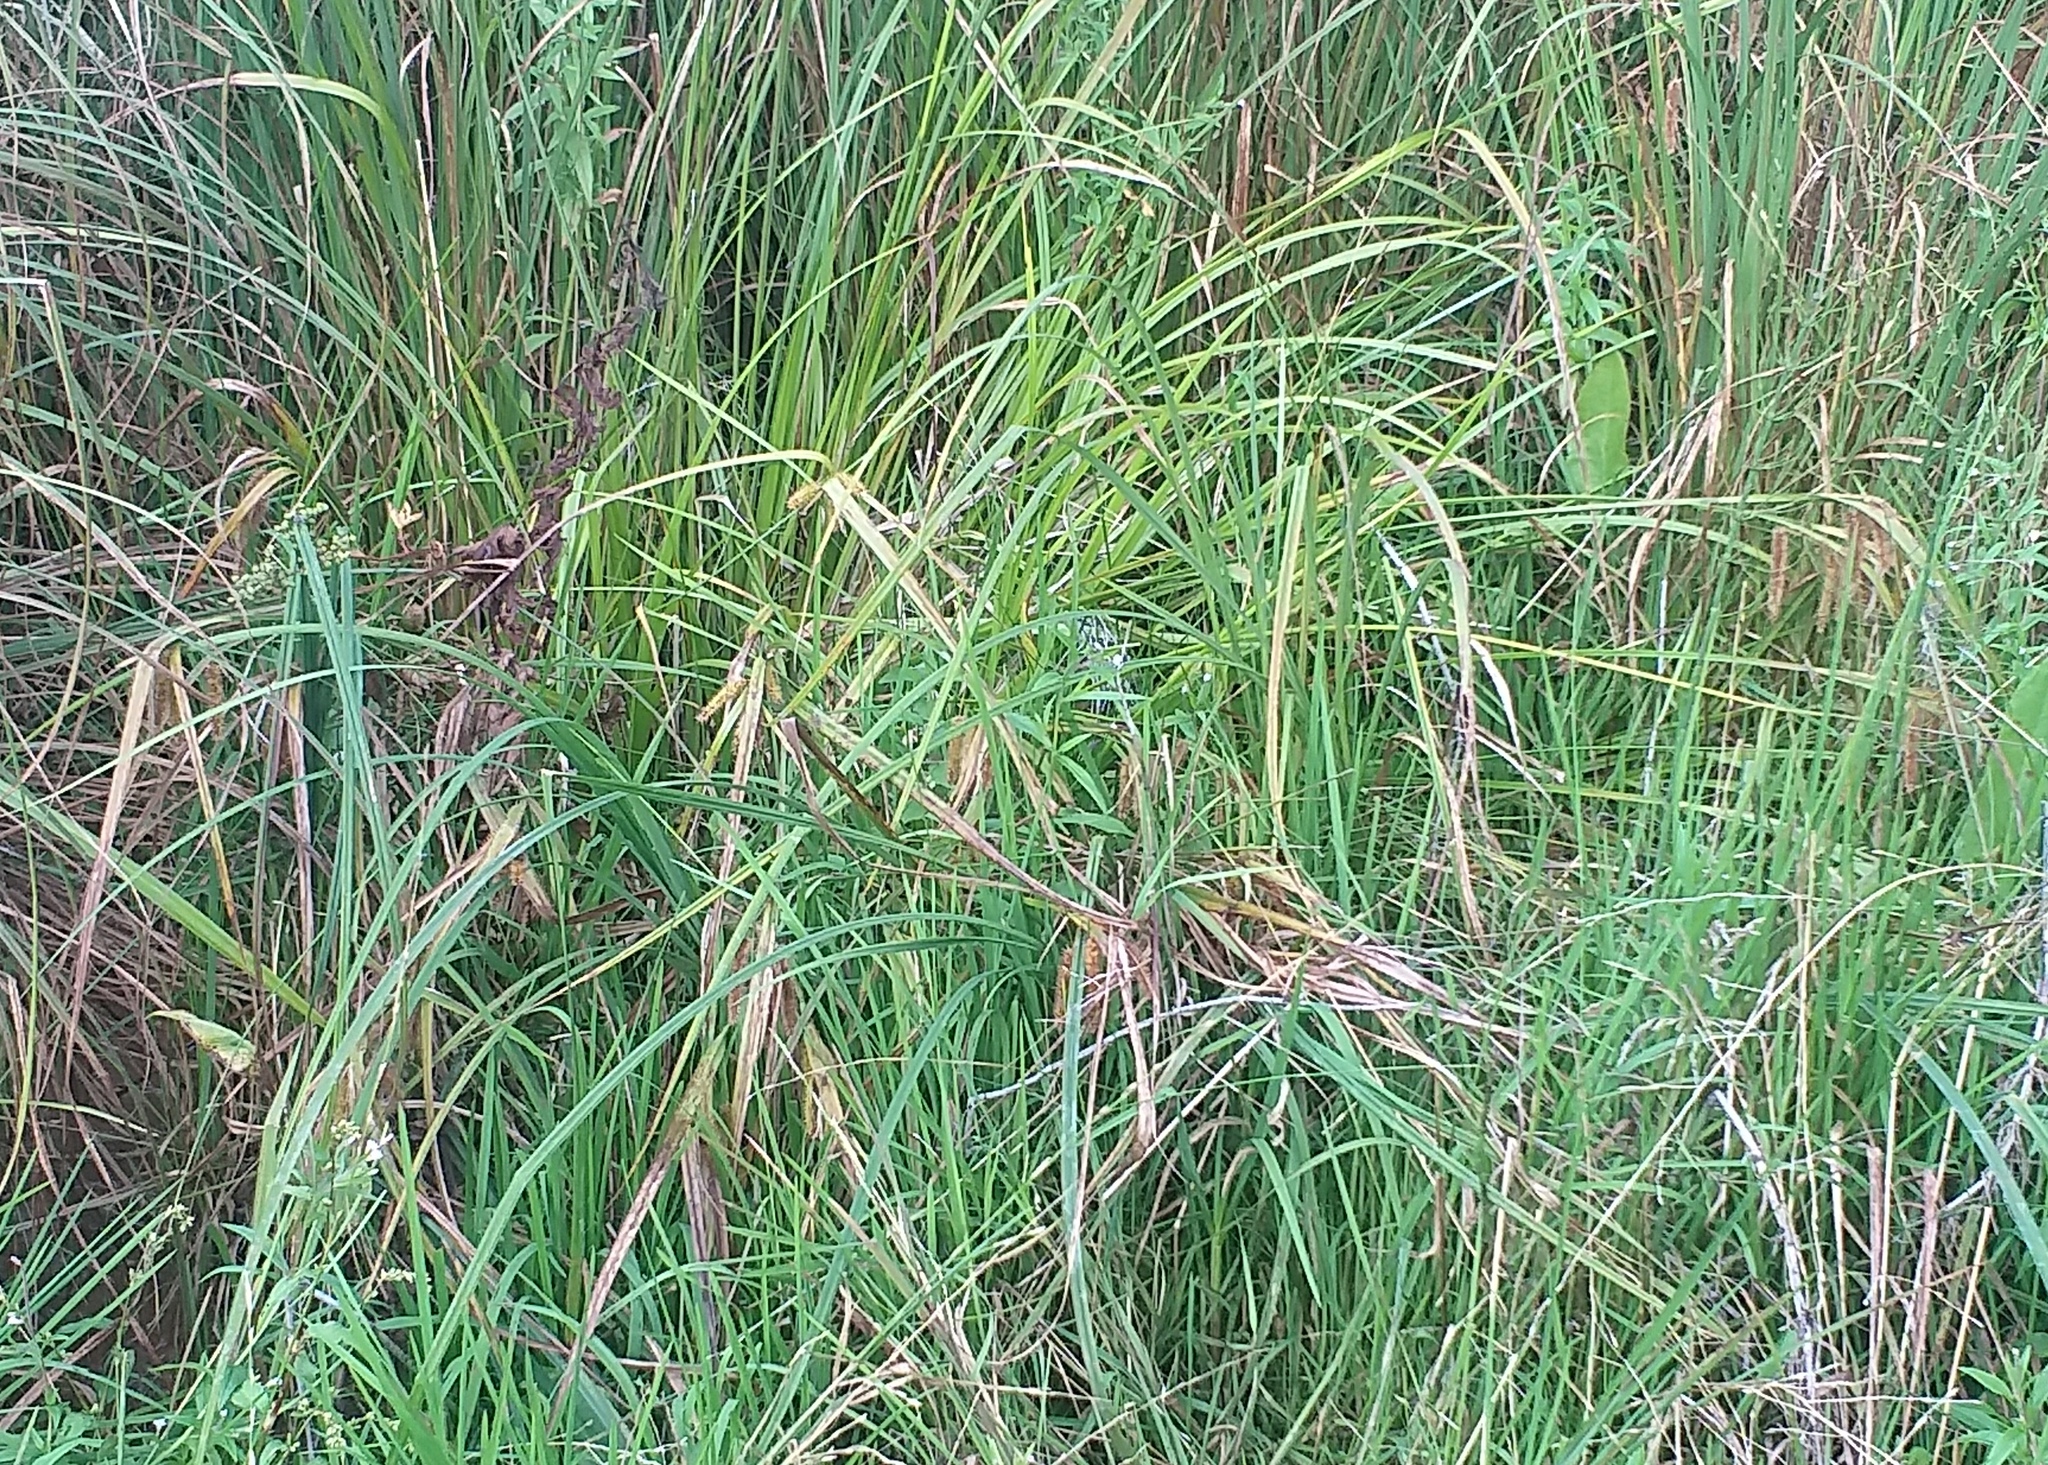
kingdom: Plantae
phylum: Tracheophyta
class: Liliopsida
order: Poales
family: Cyperaceae
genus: Carex
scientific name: Carex pseudocyperus
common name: Cyperus sedge
